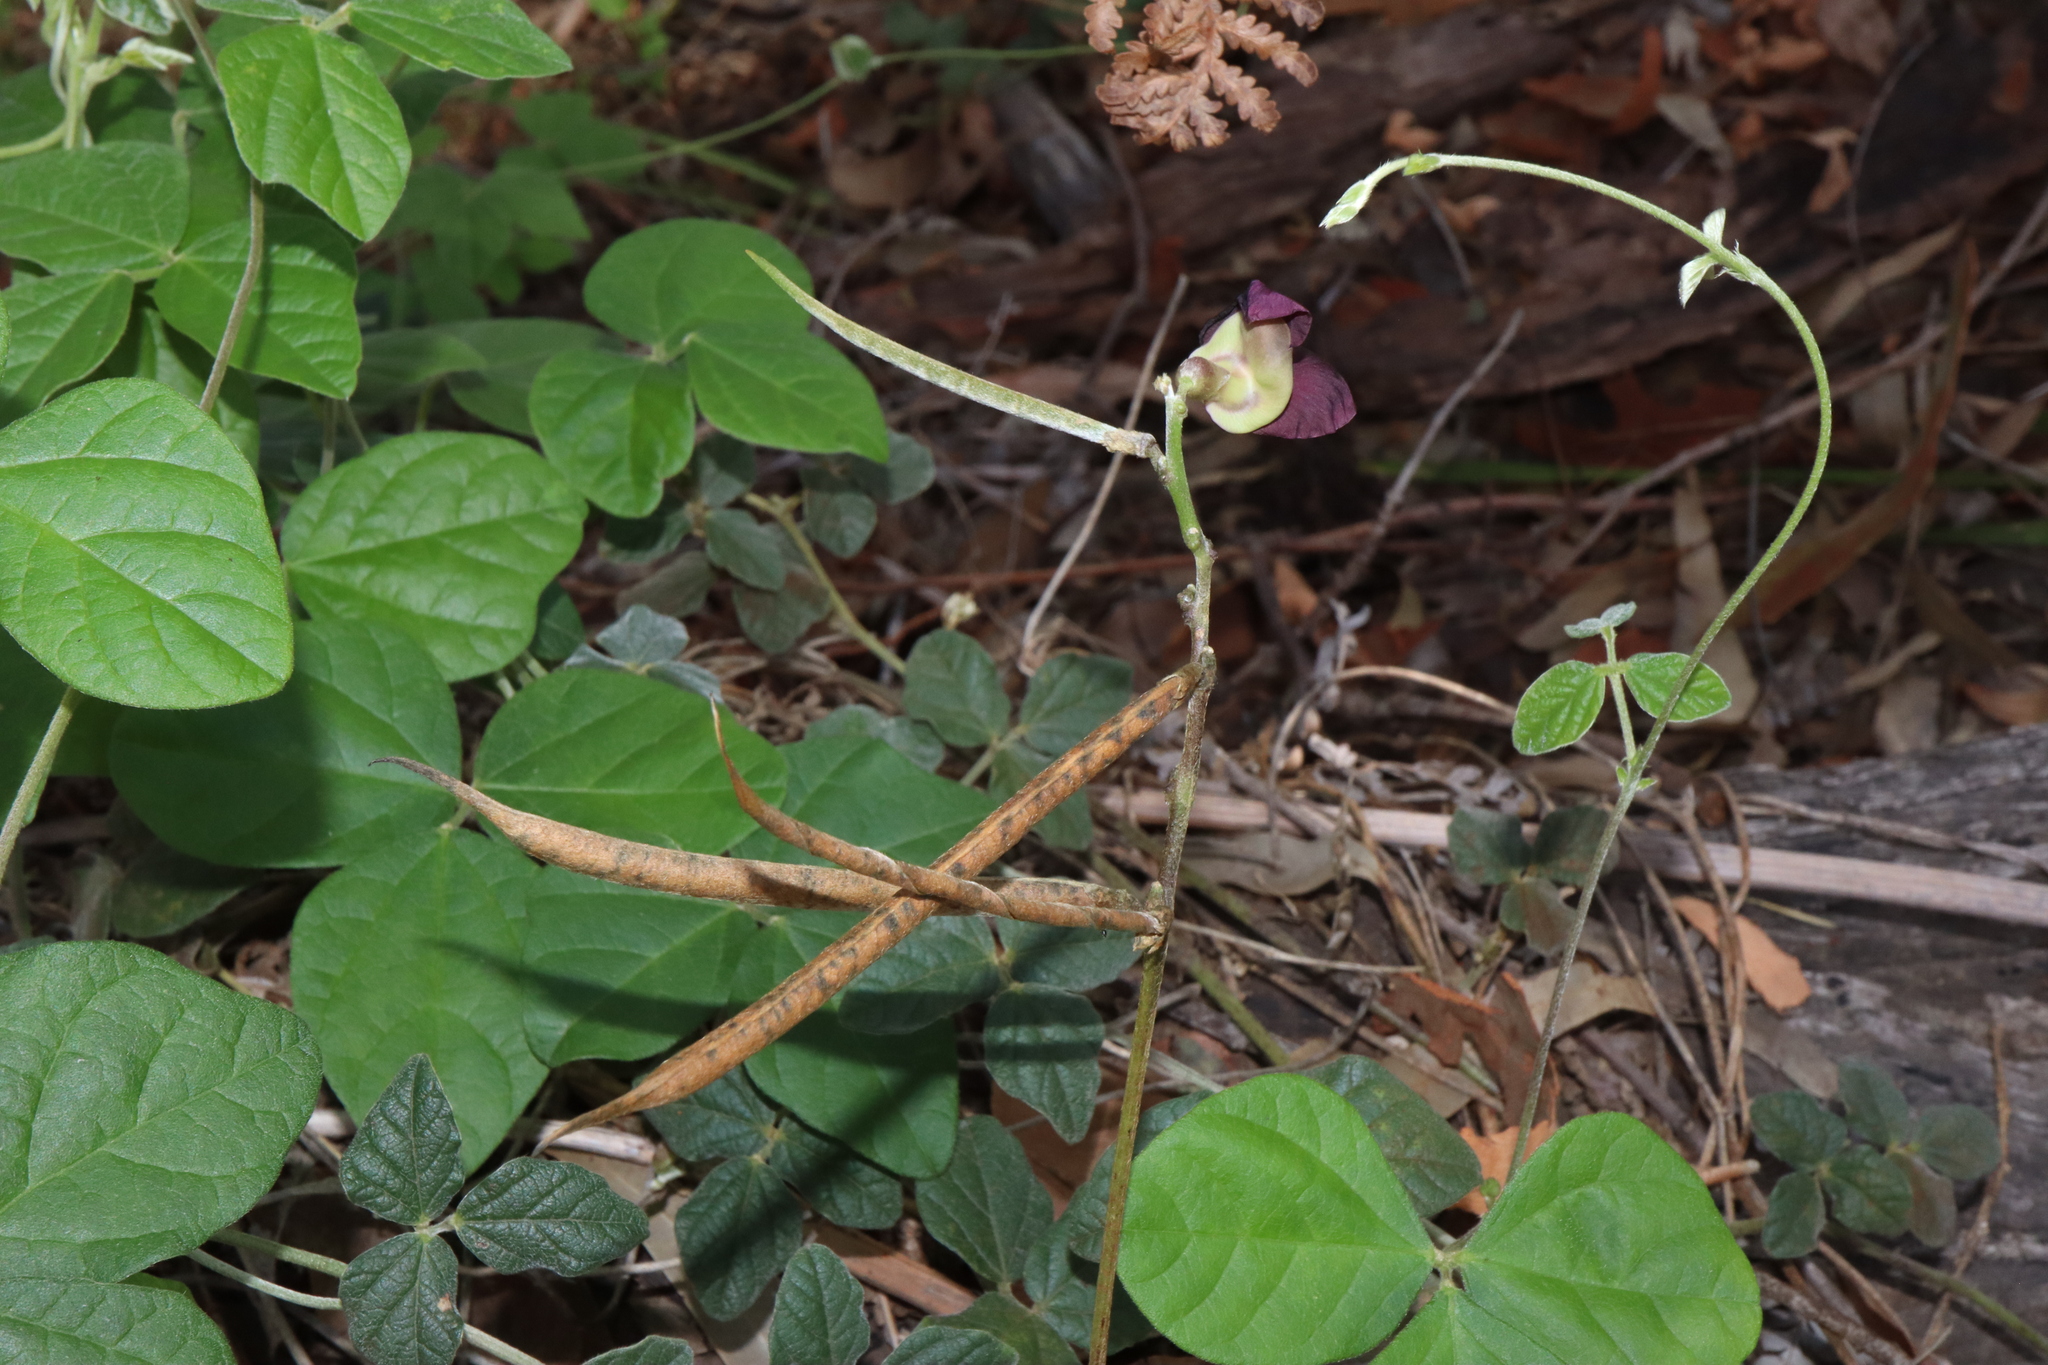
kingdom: Plantae
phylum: Tracheophyta
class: Magnoliopsida
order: Fabales
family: Fabaceae
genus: Macroptilium
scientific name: Macroptilium atropurpureum
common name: Purple bushbean
